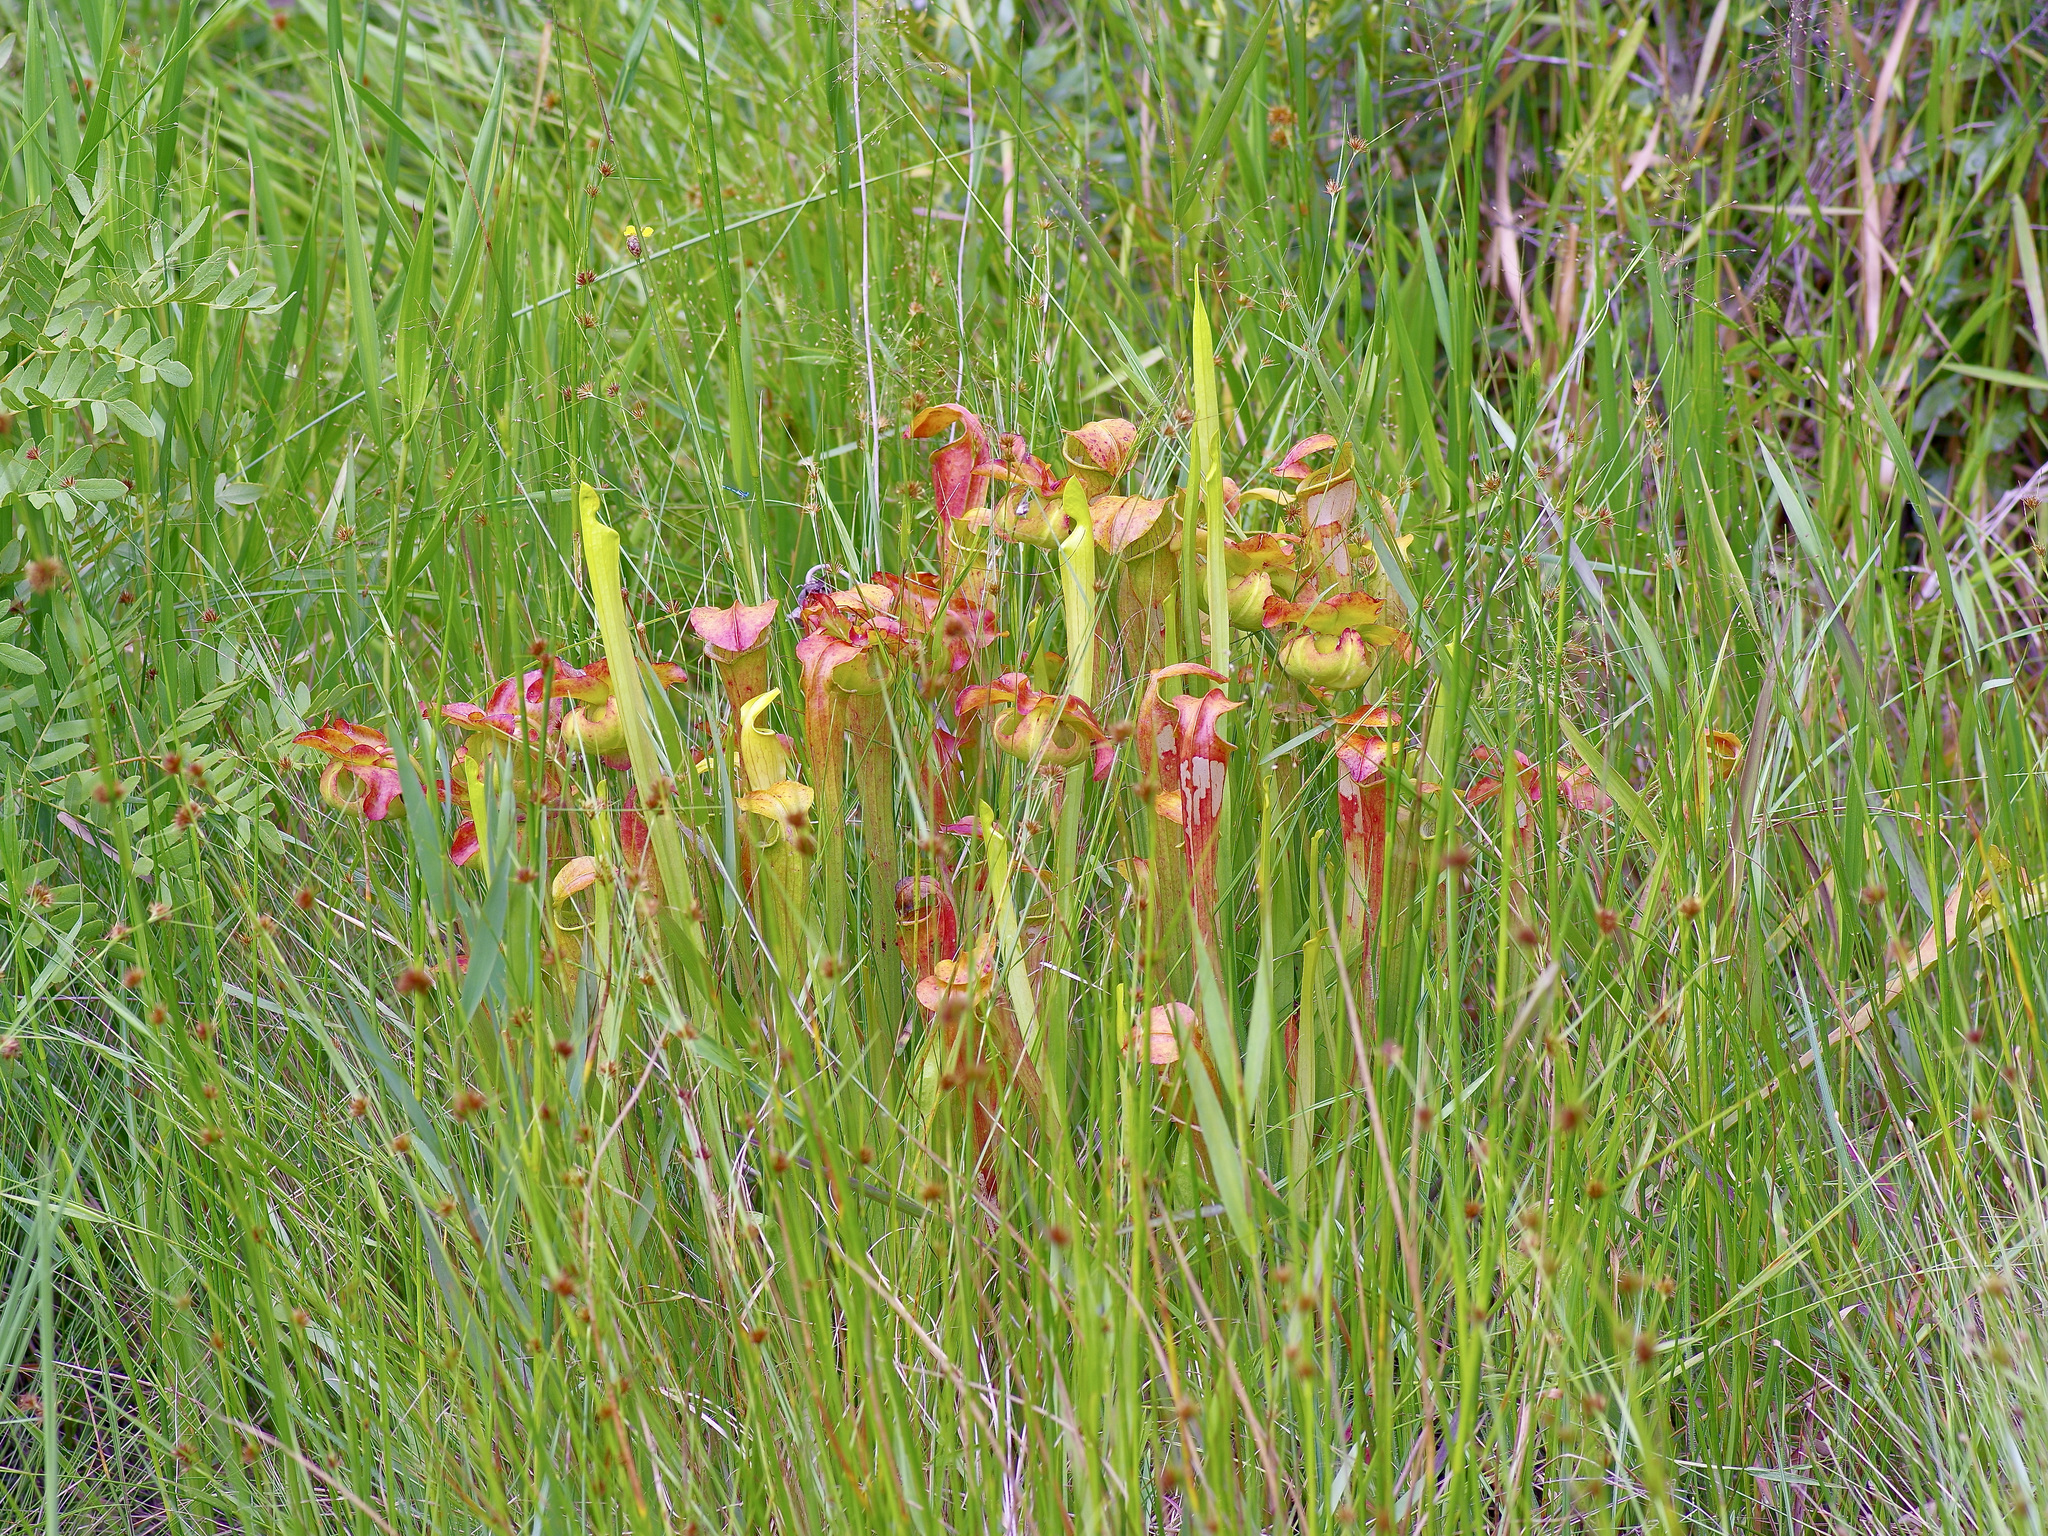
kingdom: Plantae
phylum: Tracheophyta
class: Magnoliopsida
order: Ericales
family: Sarraceniaceae
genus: Sarracenia
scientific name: Sarracenia alata
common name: Yellow trumpets
